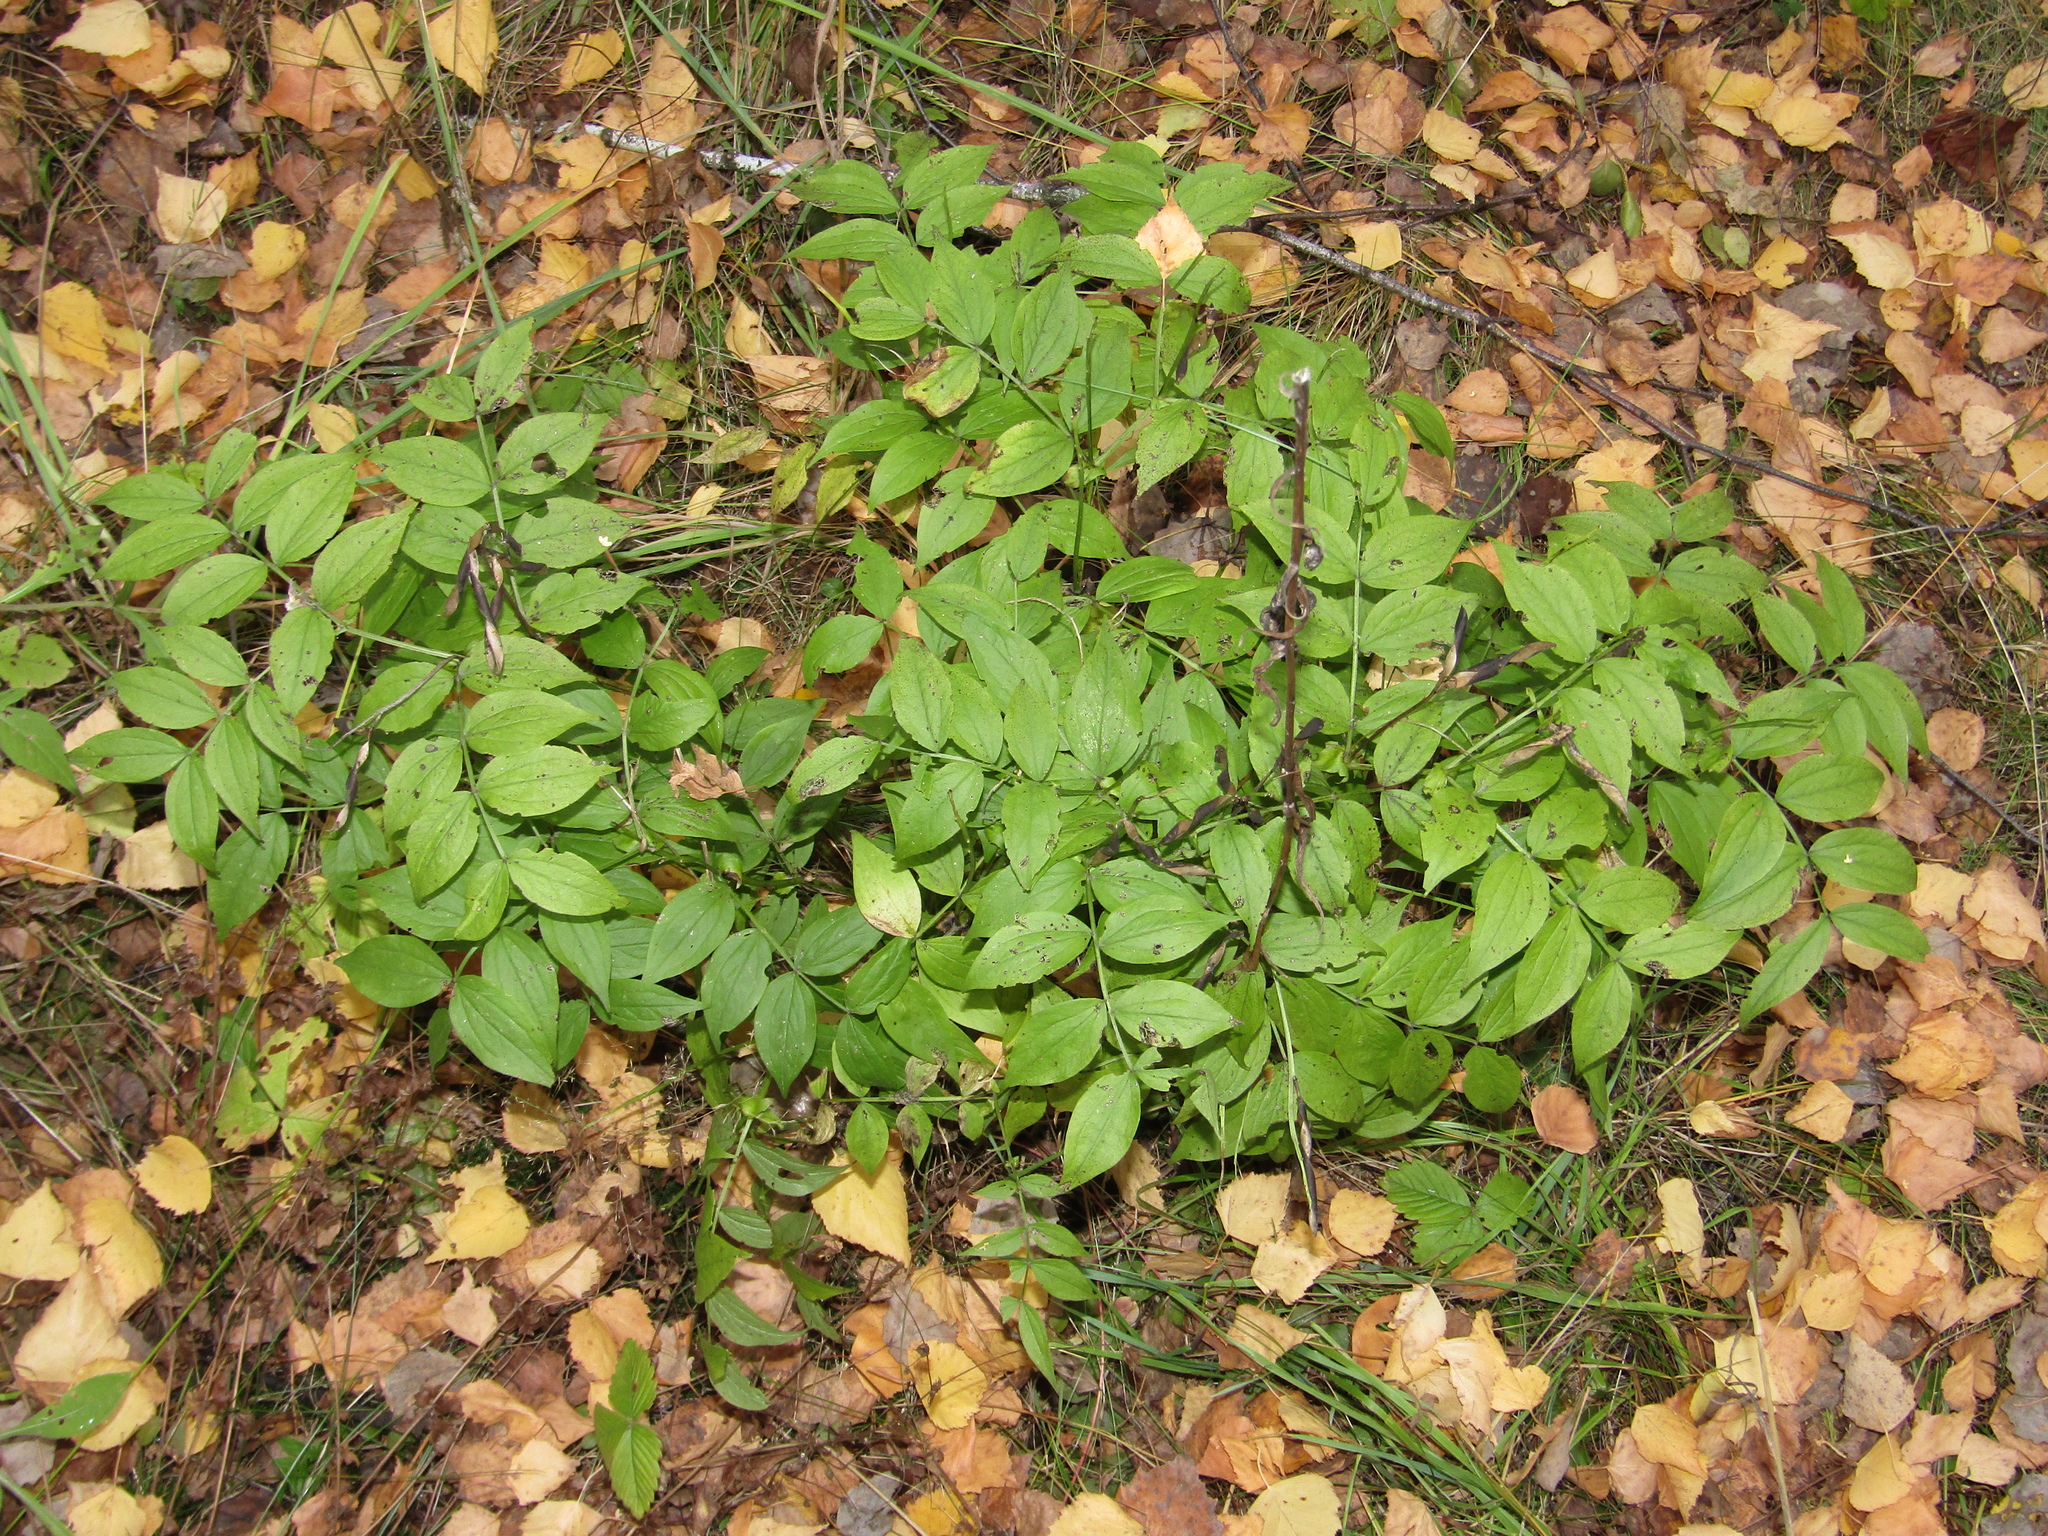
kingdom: Plantae
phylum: Tracheophyta
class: Magnoliopsida
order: Fabales
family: Fabaceae
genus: Lathyrus
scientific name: Lathyrus vernus
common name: Spring pea
